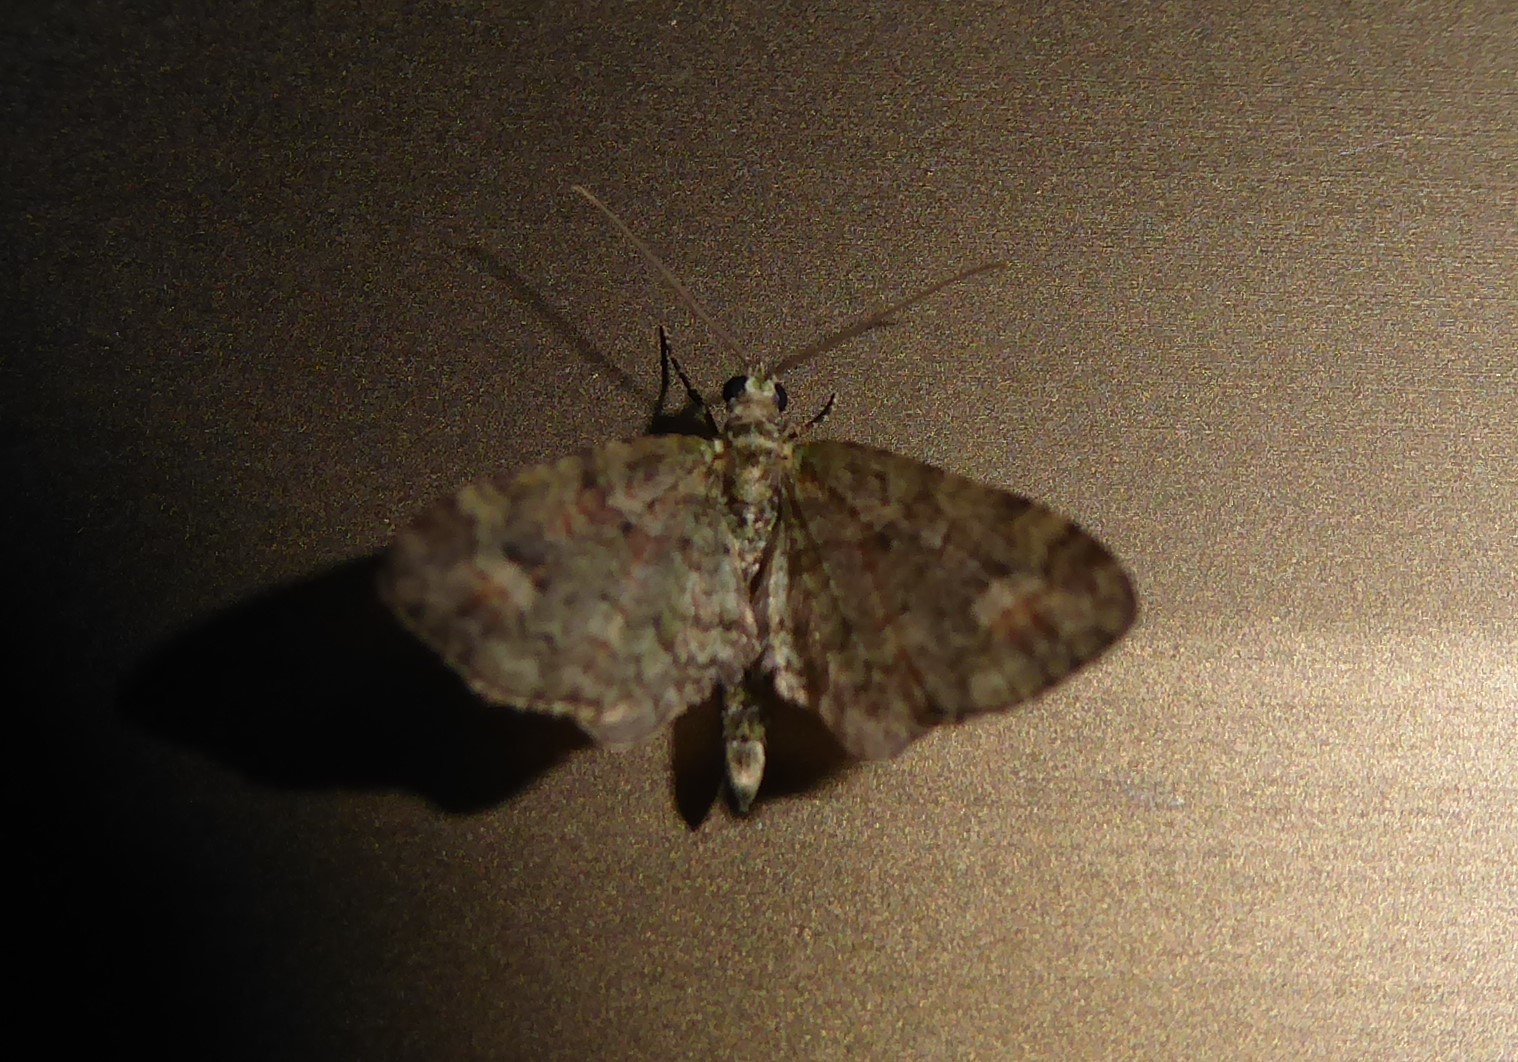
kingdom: Animalia
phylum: Arthropoda
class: Insecta
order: Lepidoptera
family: Geometridae
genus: Idaea
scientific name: Idaea mutanda
